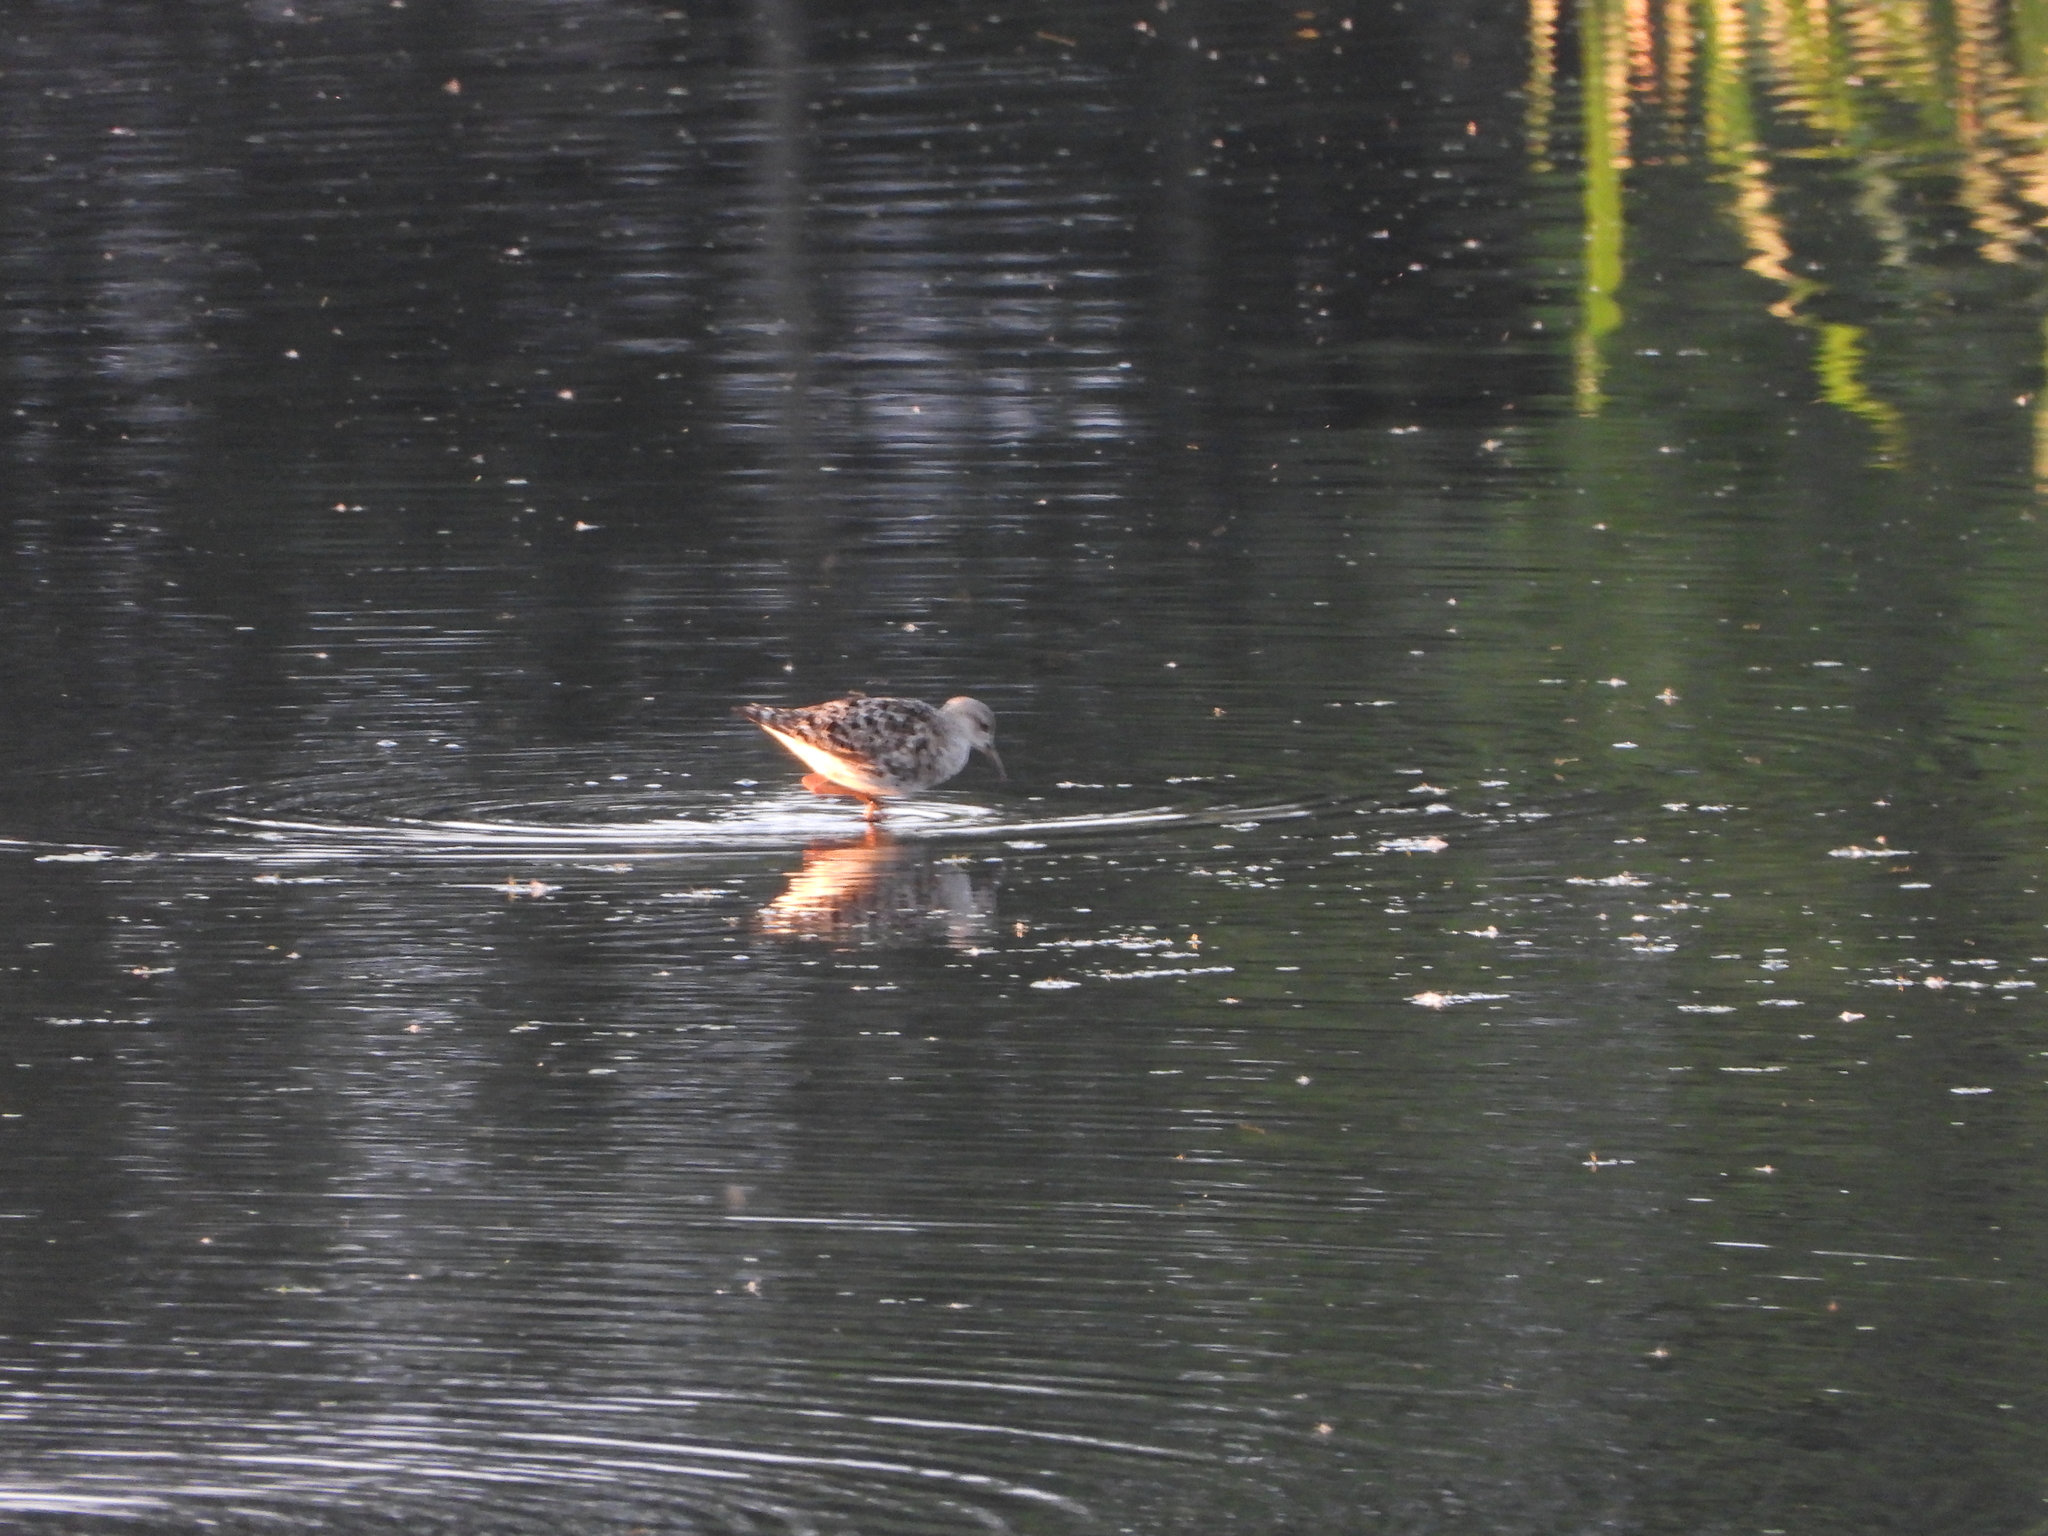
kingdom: Animalia
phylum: Chordata
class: Aves
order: Charadriiformes
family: Scolopacidae
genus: Calidris
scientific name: Calidris pugnax
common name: Ruff
